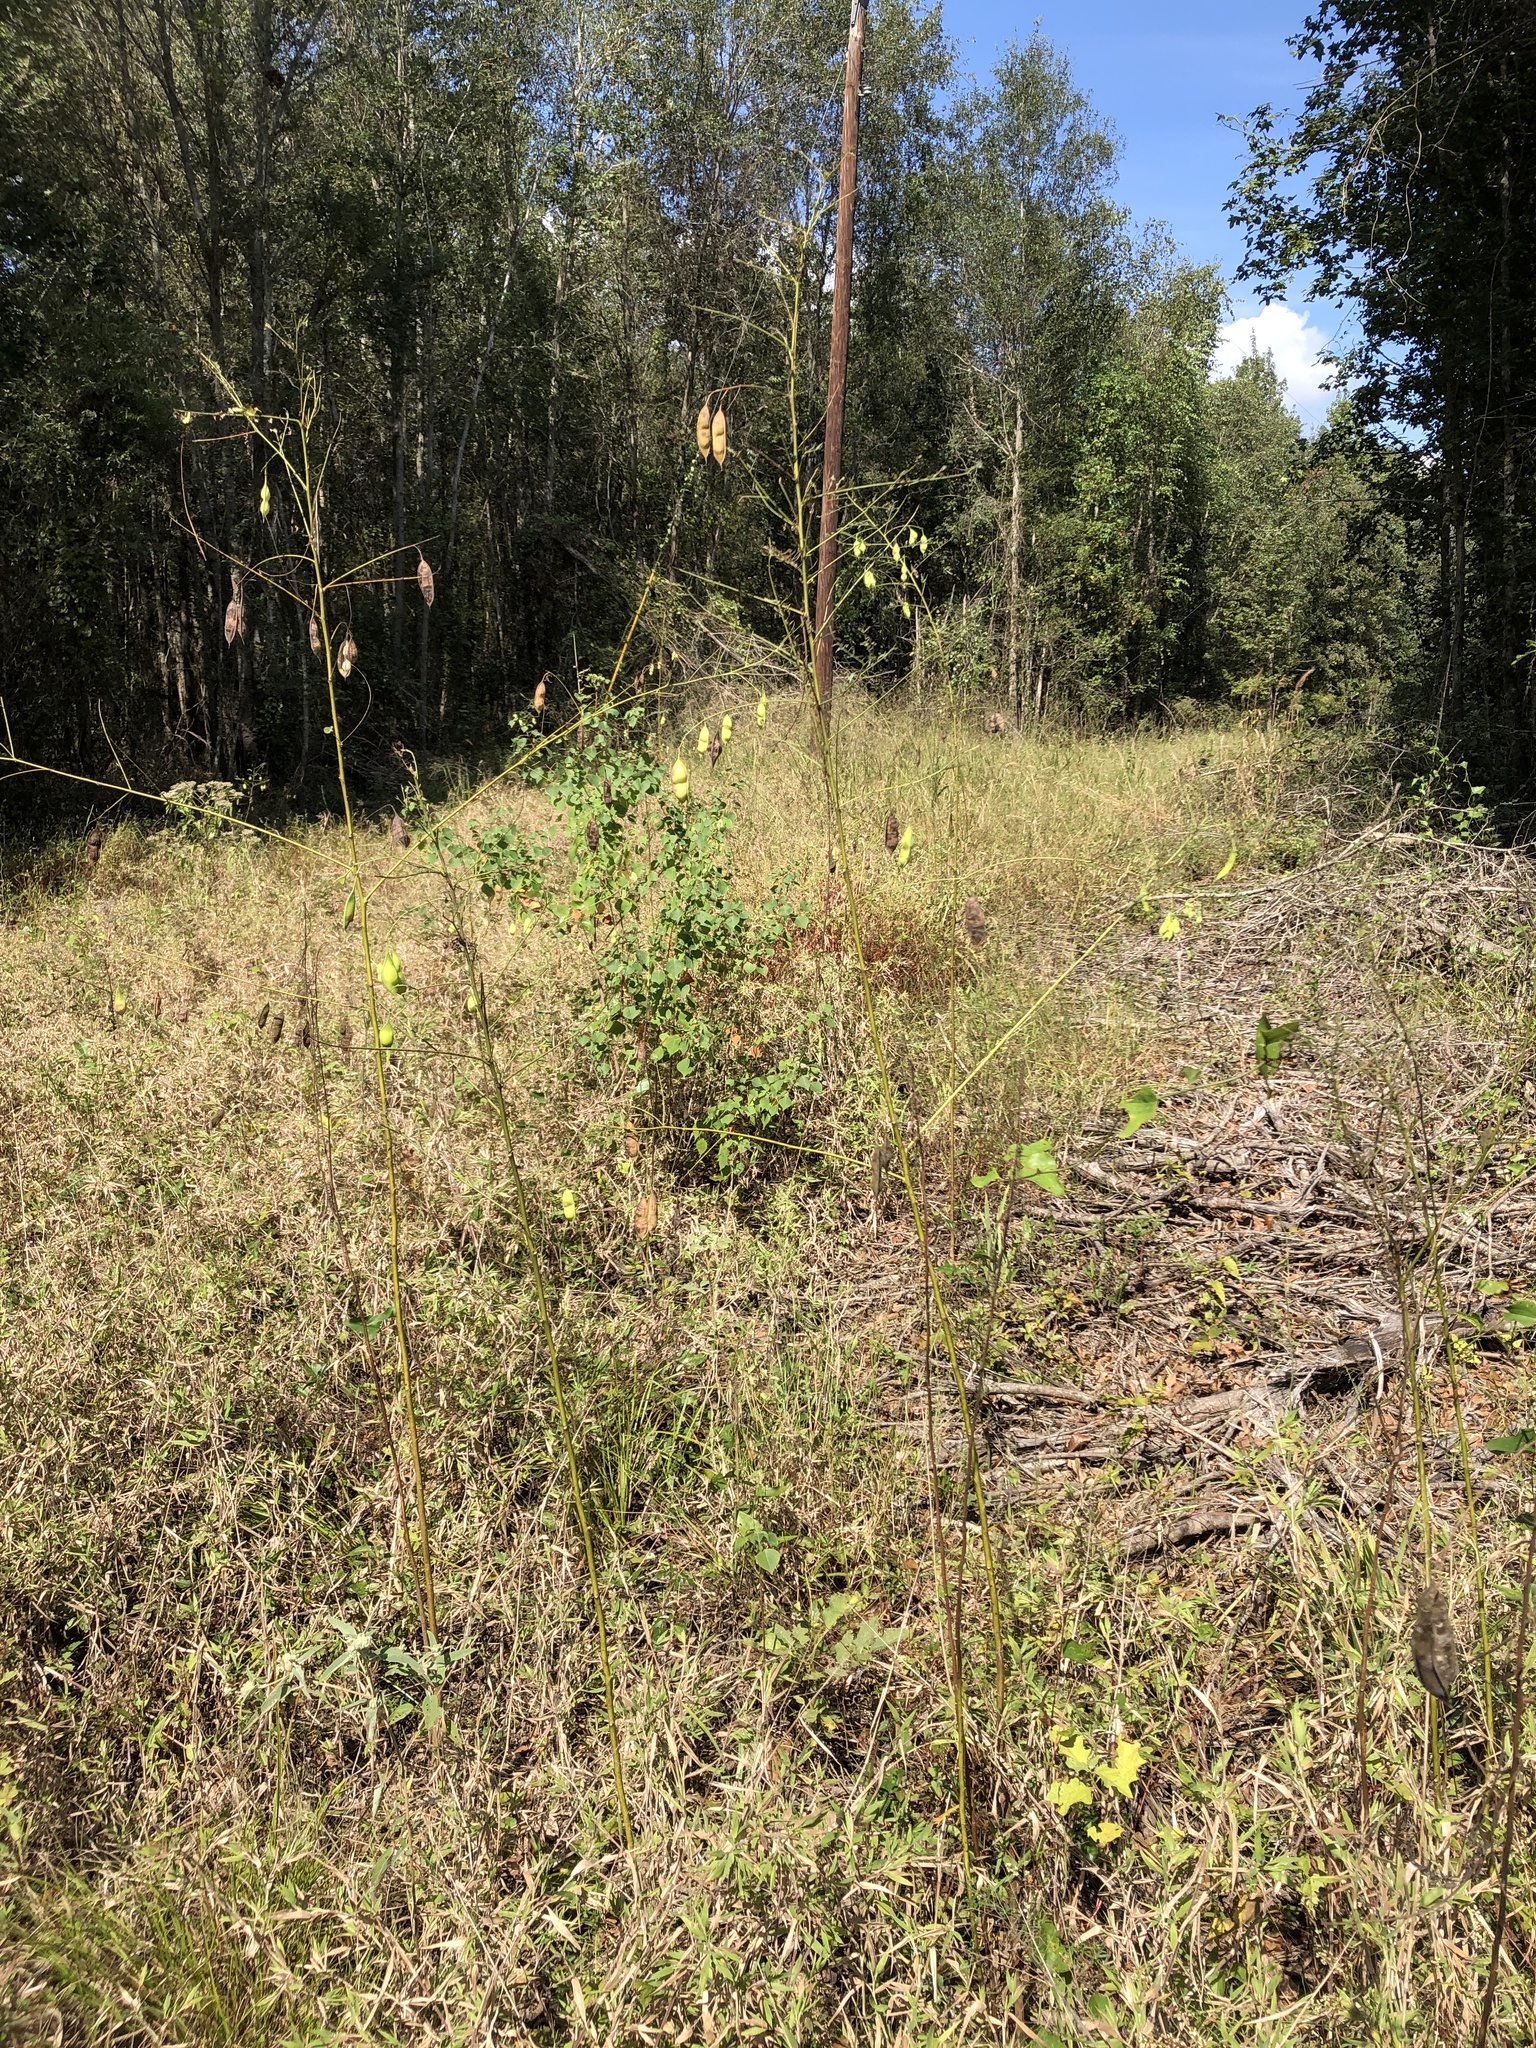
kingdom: Plantae
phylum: Tracheophyta
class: Magnoliopsida
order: Fabales
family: Fabaceae
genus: Sesbania
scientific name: Sesbania vesicaria
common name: Bagpod
